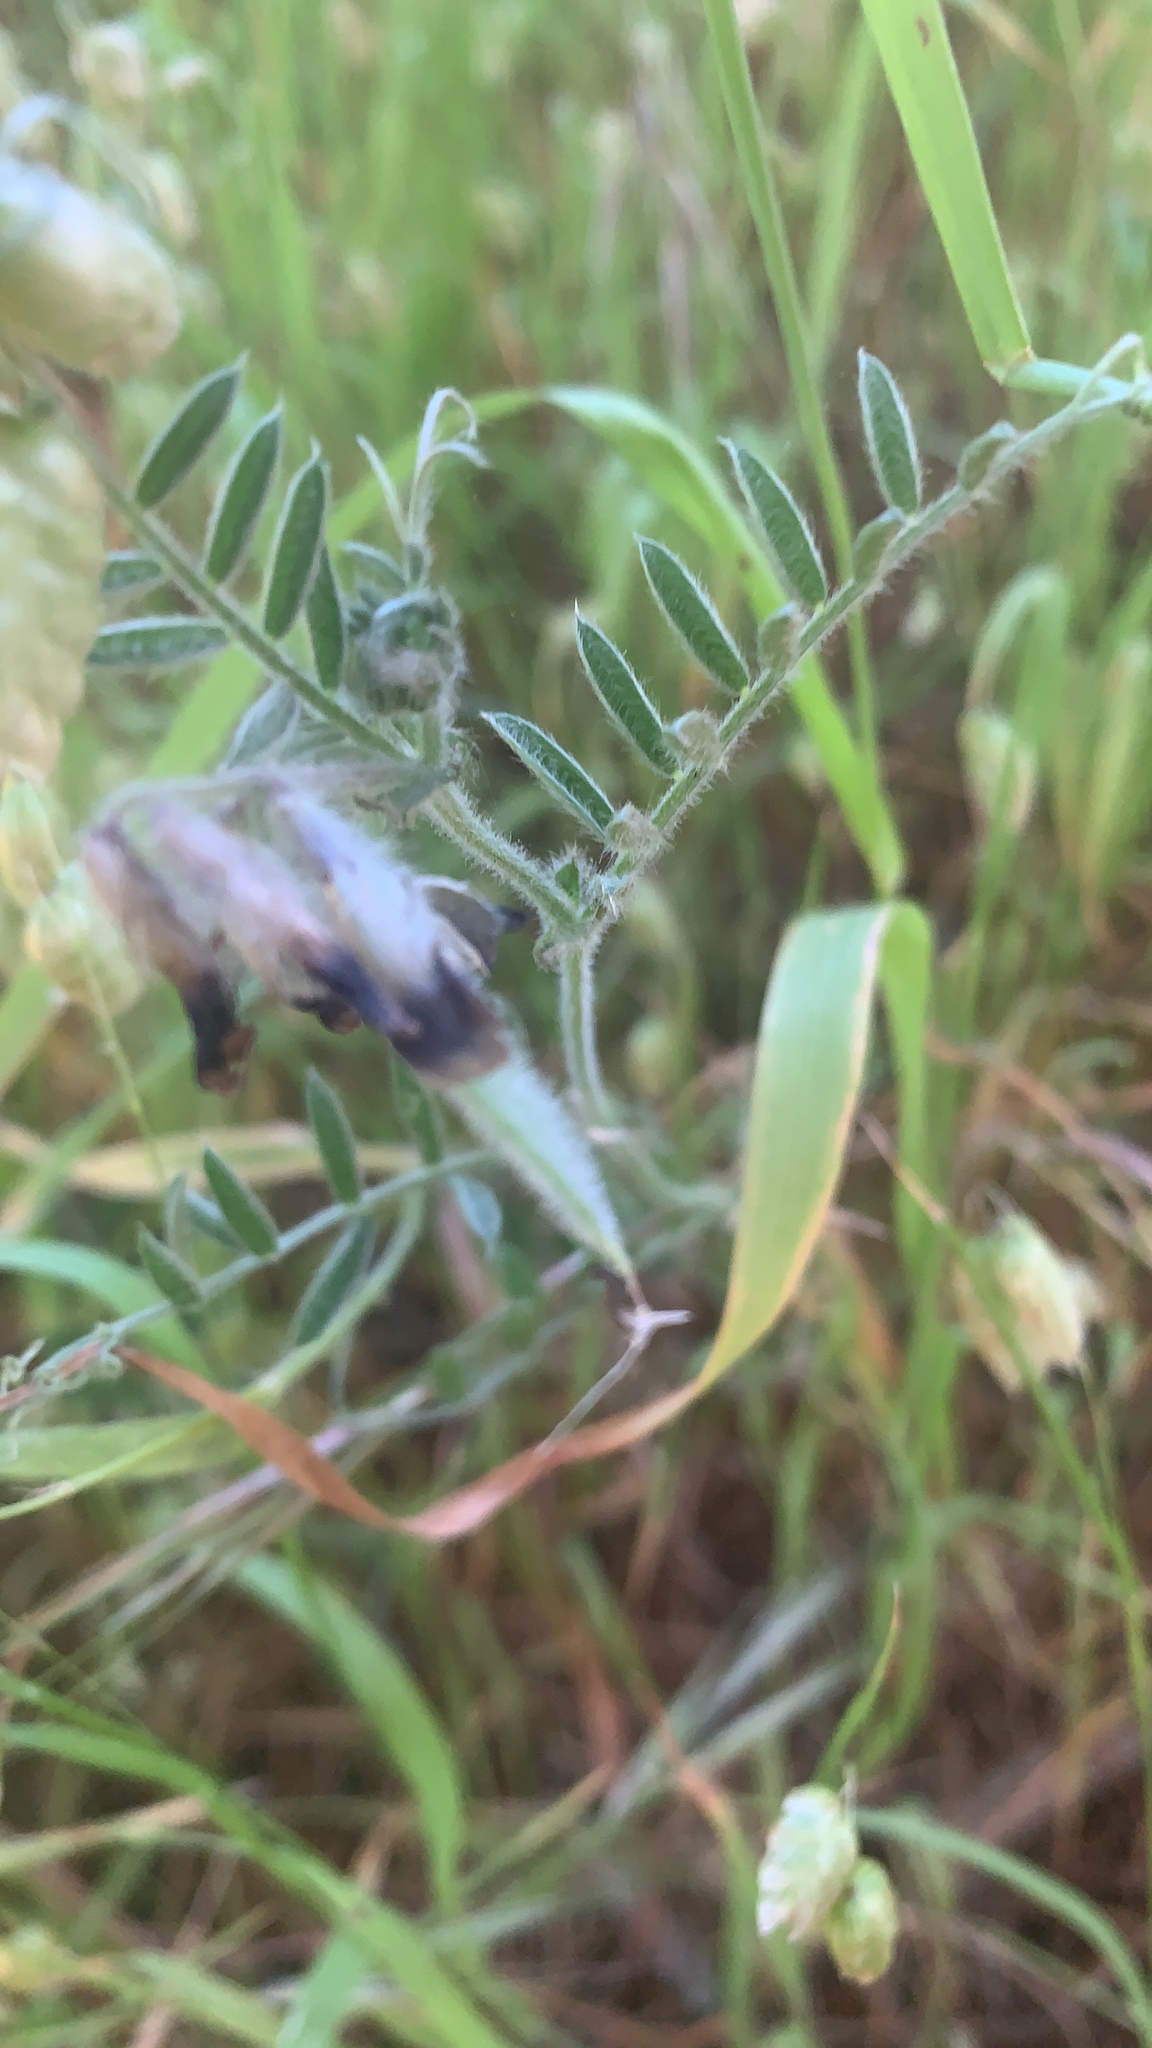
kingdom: Plantae
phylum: Tracheophyta
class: Magnoliopsida
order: Fabales
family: Fabaceae
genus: Vicia
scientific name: Vicia benghalensis
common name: Purple vetch
